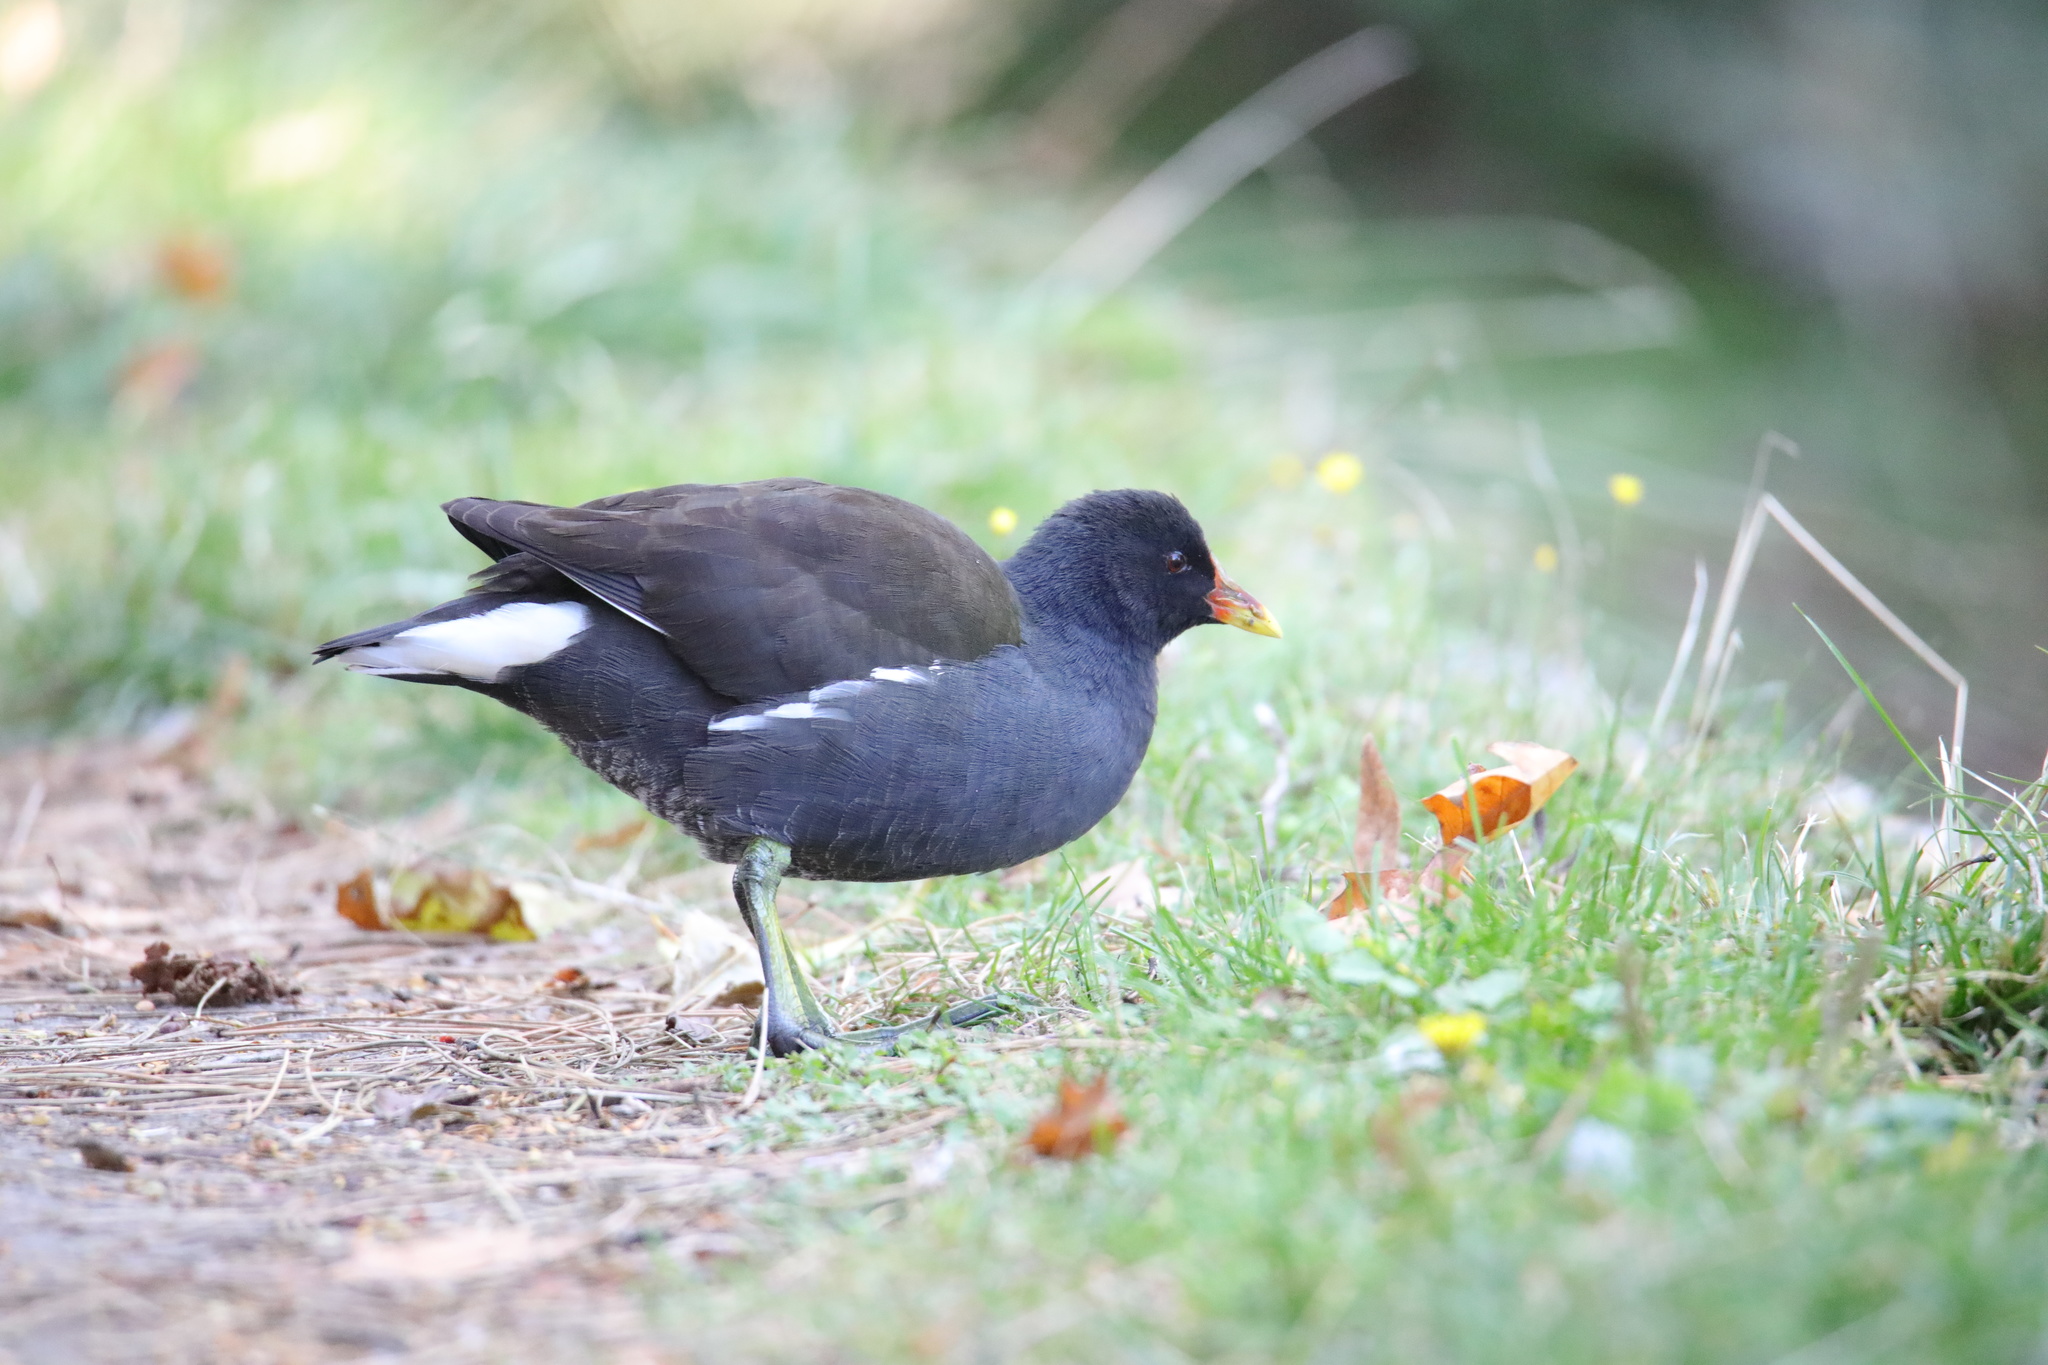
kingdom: Animalia
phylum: Chordata
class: Aves
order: Gruiformes
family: Rallidae
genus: Gallinula
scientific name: Gallinula chloropus
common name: Common moorhen
